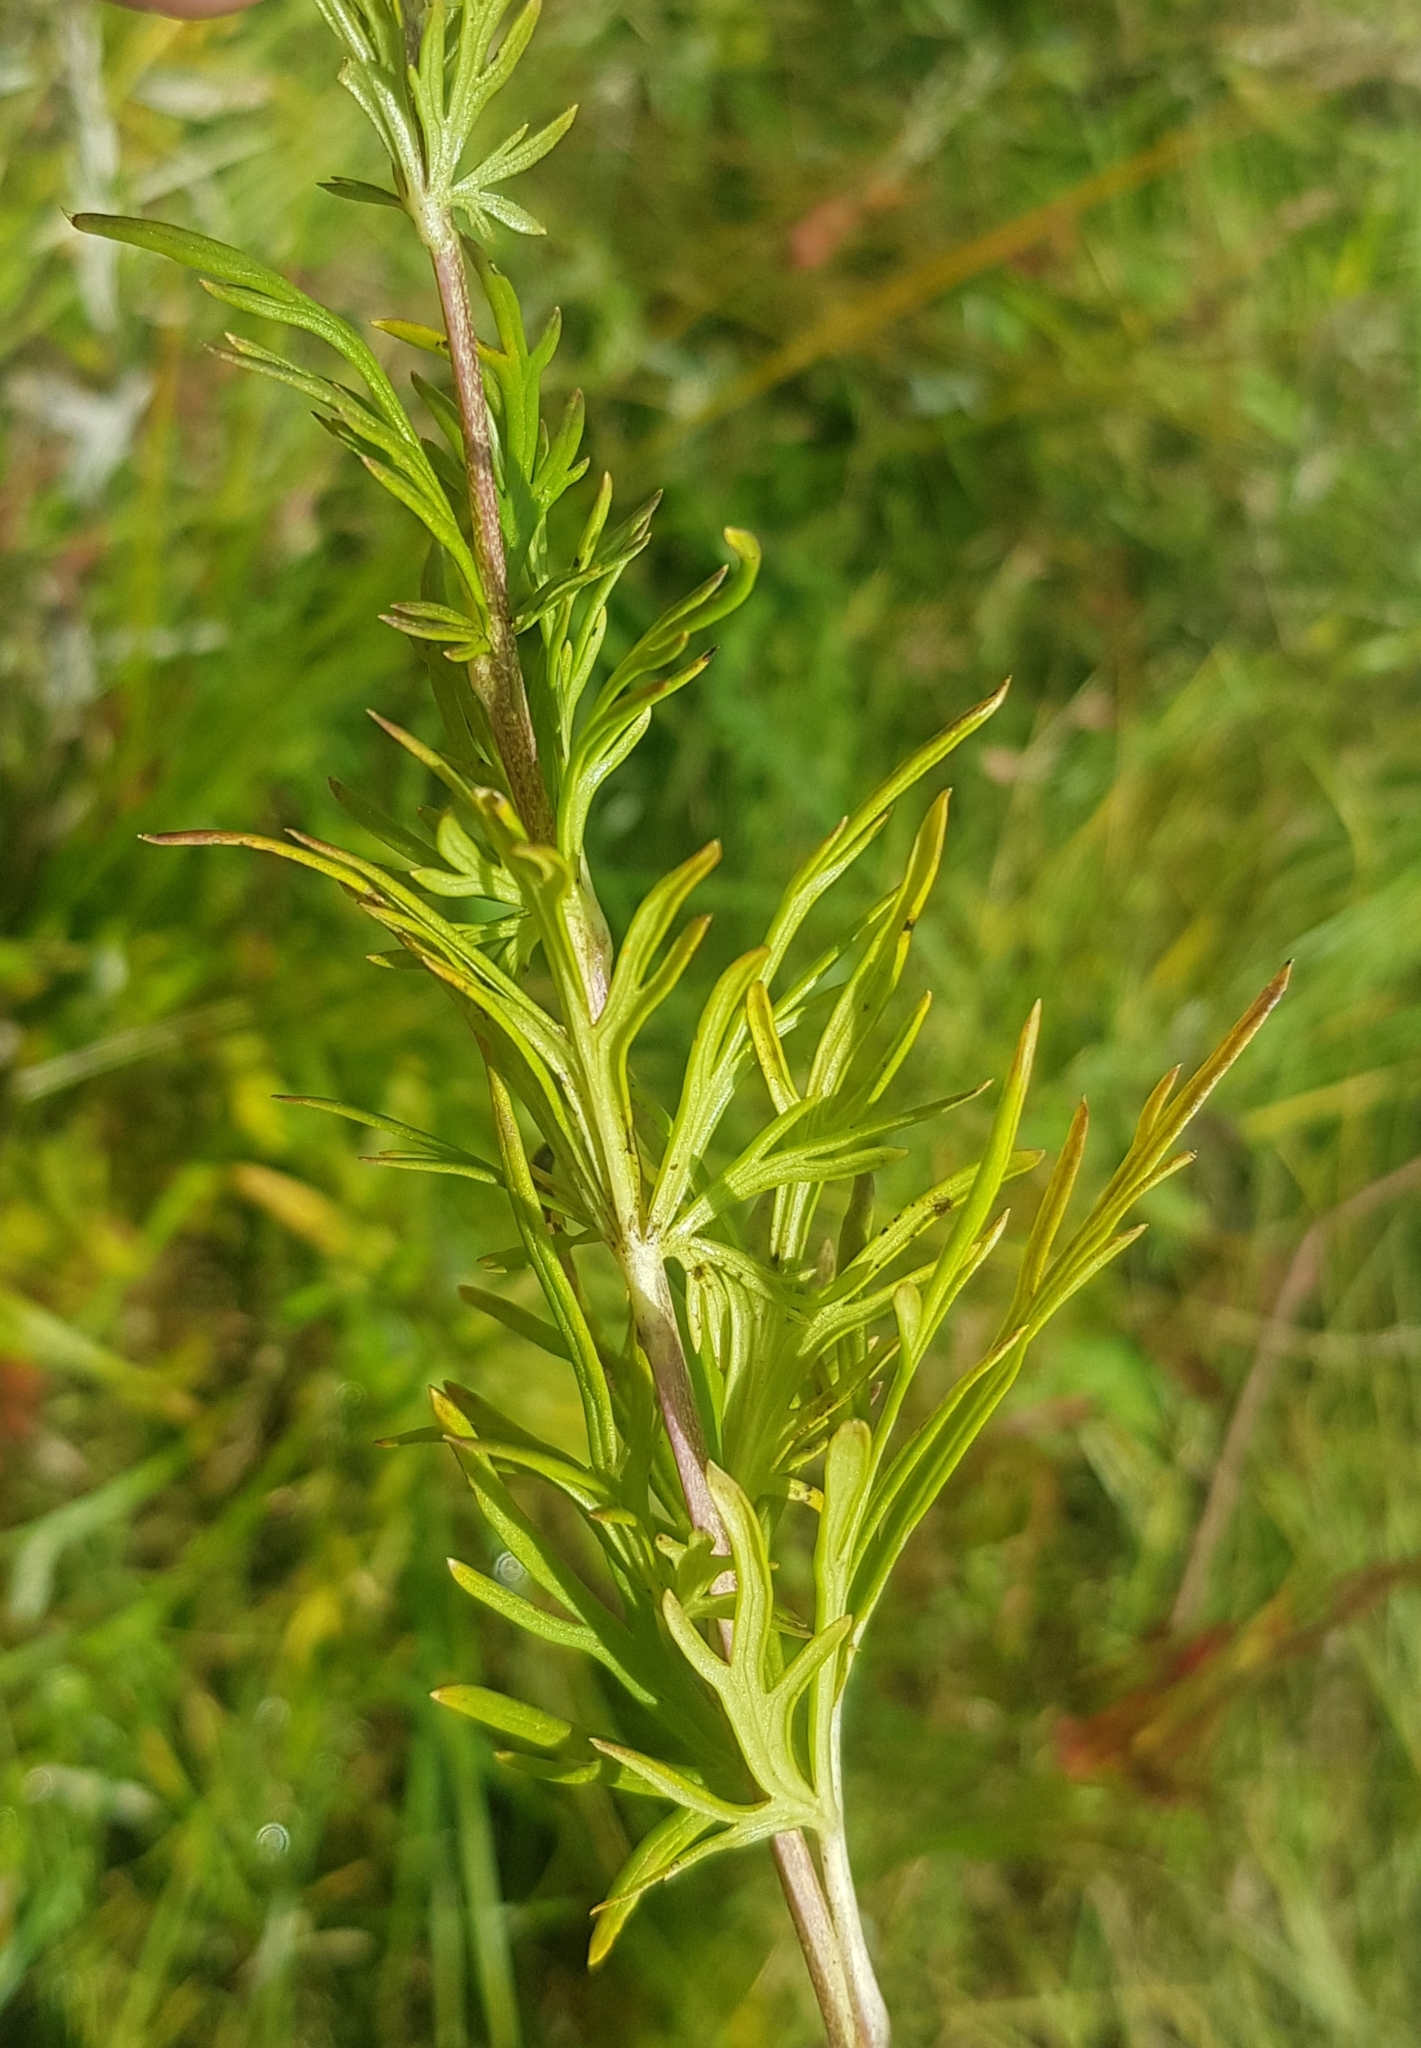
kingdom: Plantae
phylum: Tracheophyta
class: Magnoliopsida
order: Ranunculales
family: Ranunculaceae
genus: Aconitum
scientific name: Aconitum baicalense
